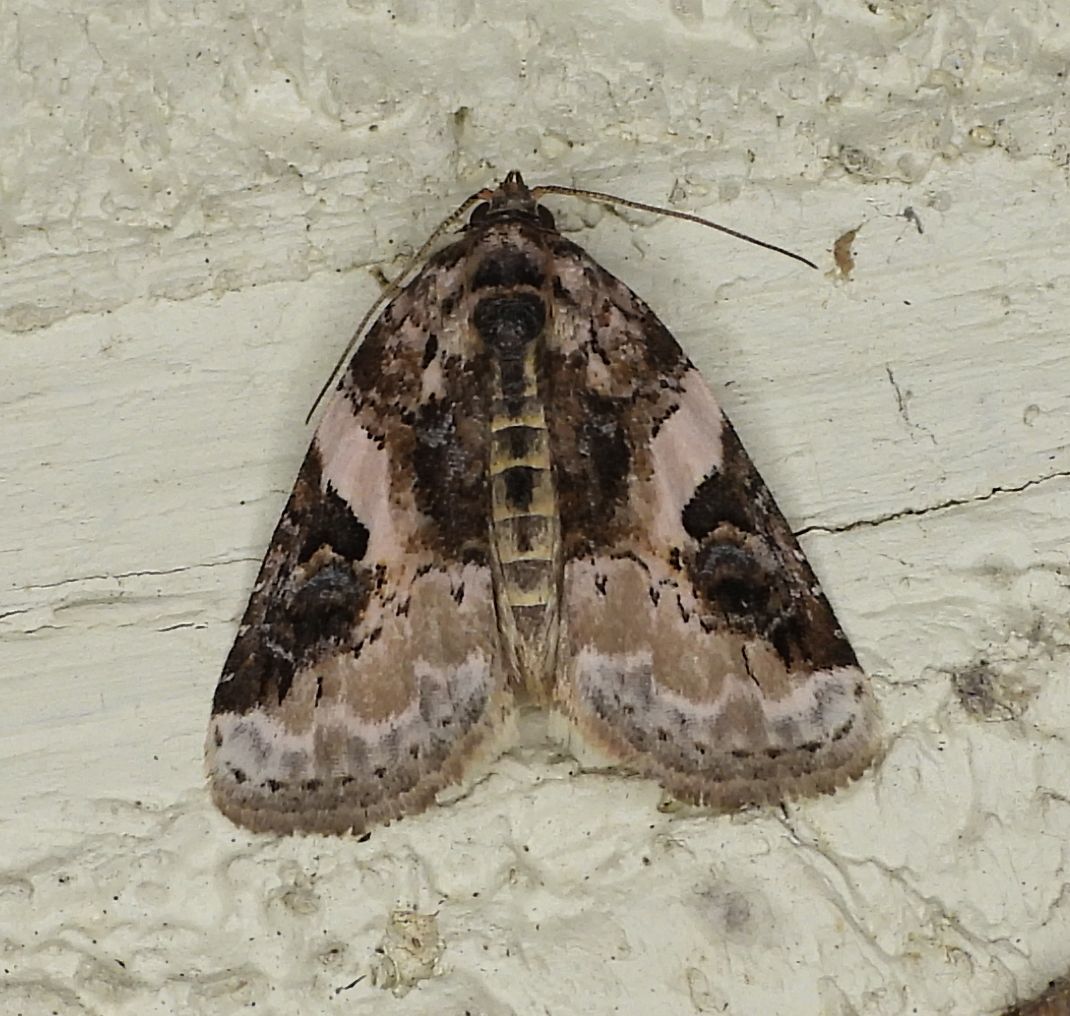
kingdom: Animalia
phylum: Arthropoda
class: Insecta
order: Lepidoptera
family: Noctuidae
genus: Pseudeustrotia
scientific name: Pseudeustrotia carneola
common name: Pink-barred lithacodia moth
